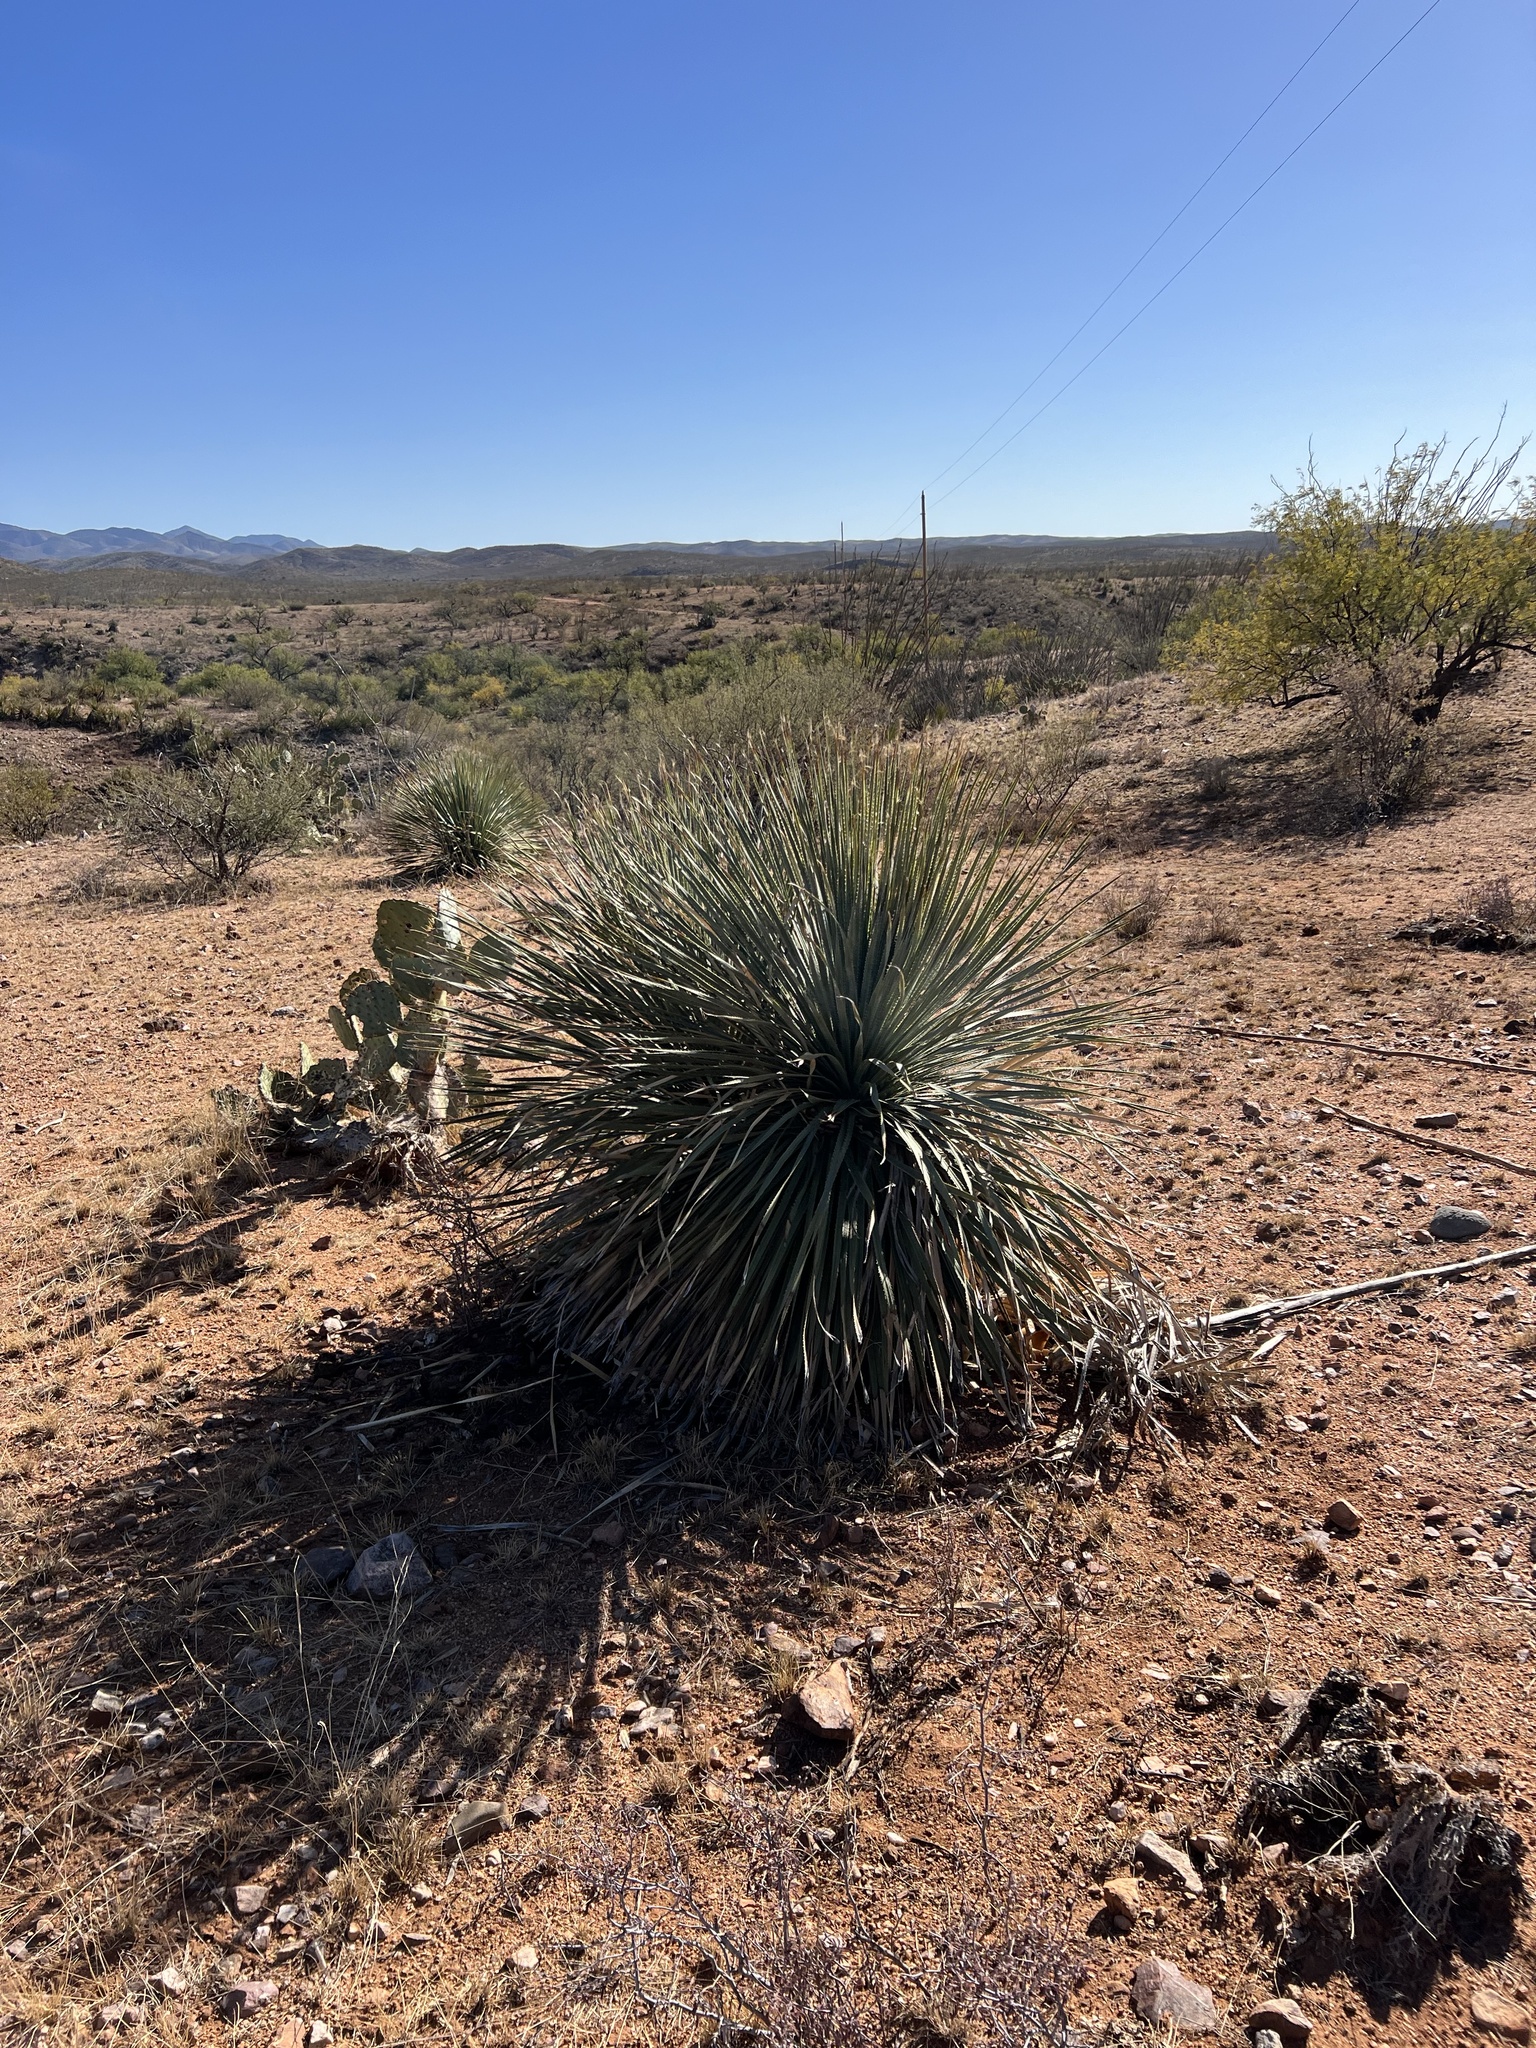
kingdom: Plantae
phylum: Tracheophyta
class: Liliopsida
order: Asparagales
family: Asparagaceae
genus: Dasylirion
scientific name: Dasylirion wheeleri
